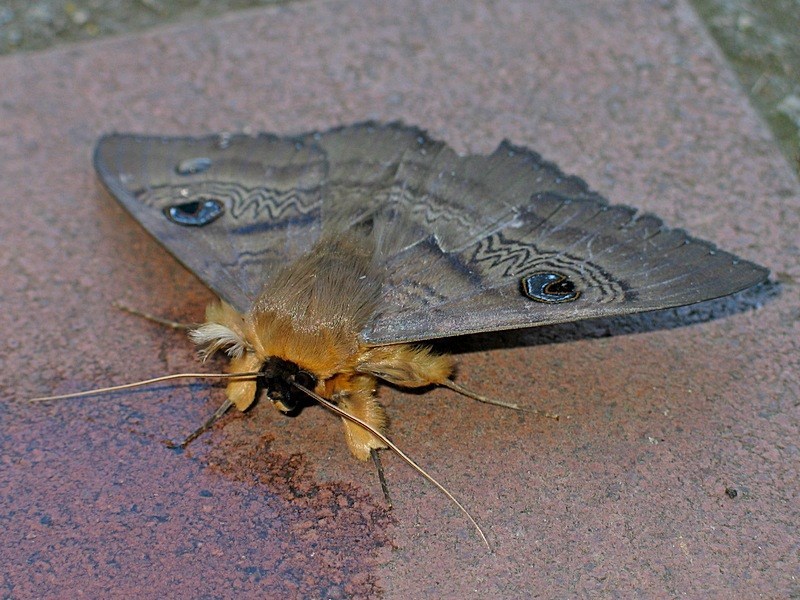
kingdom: Animalia
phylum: Arthropoda
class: Insecta
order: Lepidoptera
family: Erebidae
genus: Dasypodia
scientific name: Dasypodia selenophora
